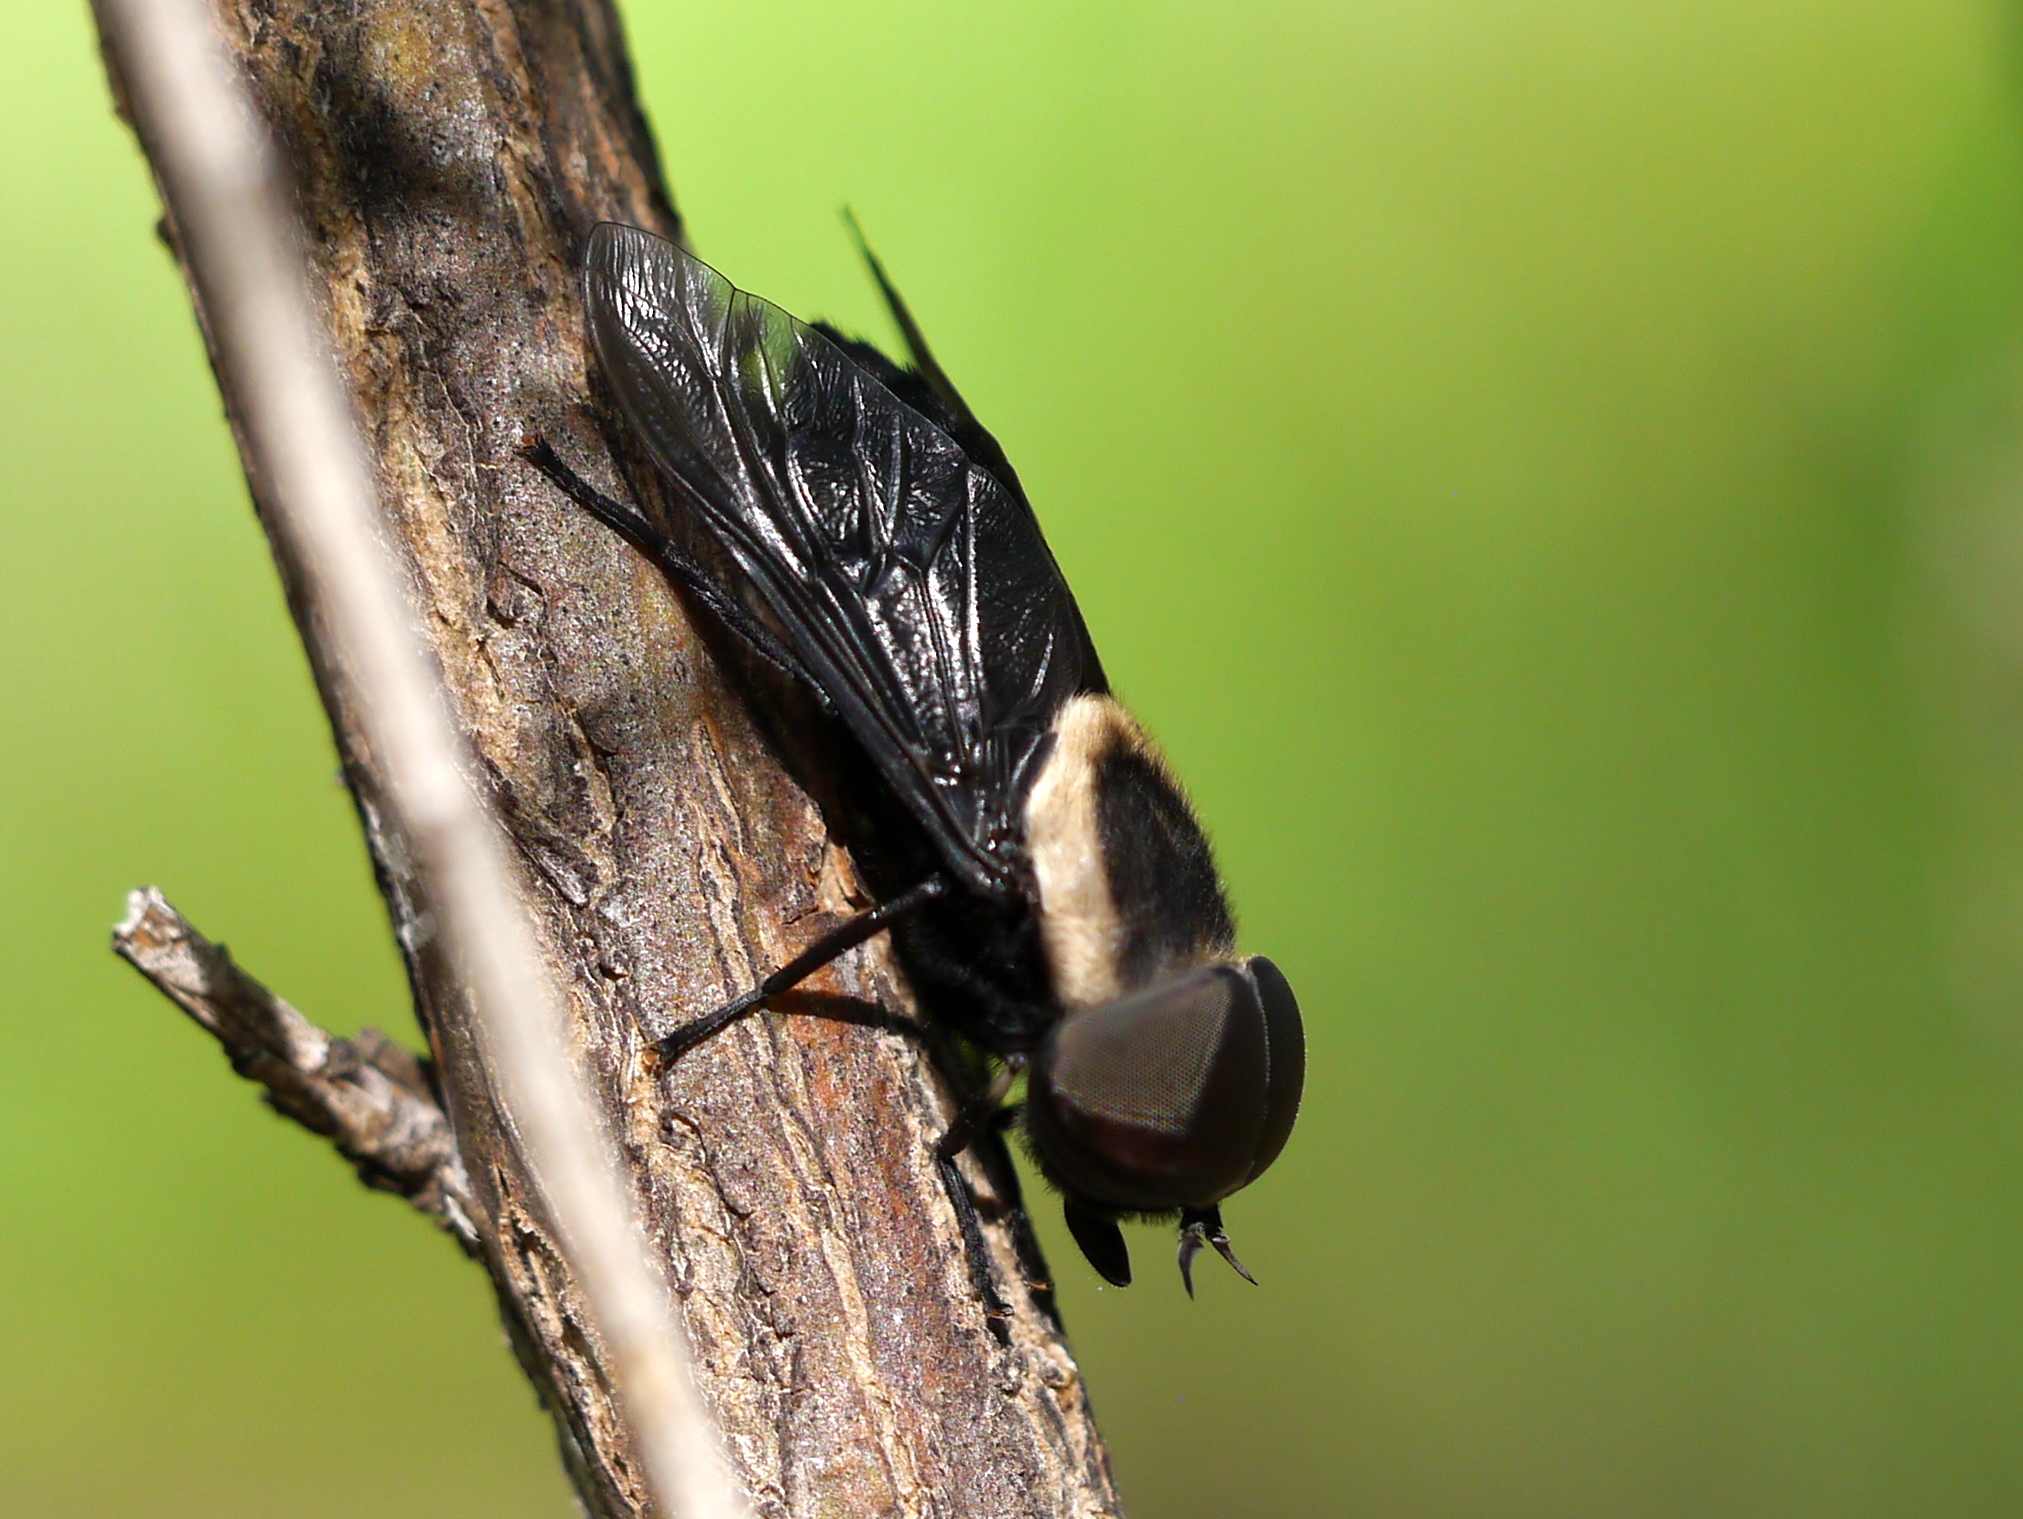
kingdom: Animalia
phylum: Arthropoda
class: Insecta
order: Diptera
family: Tabanidae
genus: Tabanus
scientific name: Tabanus punctifer
